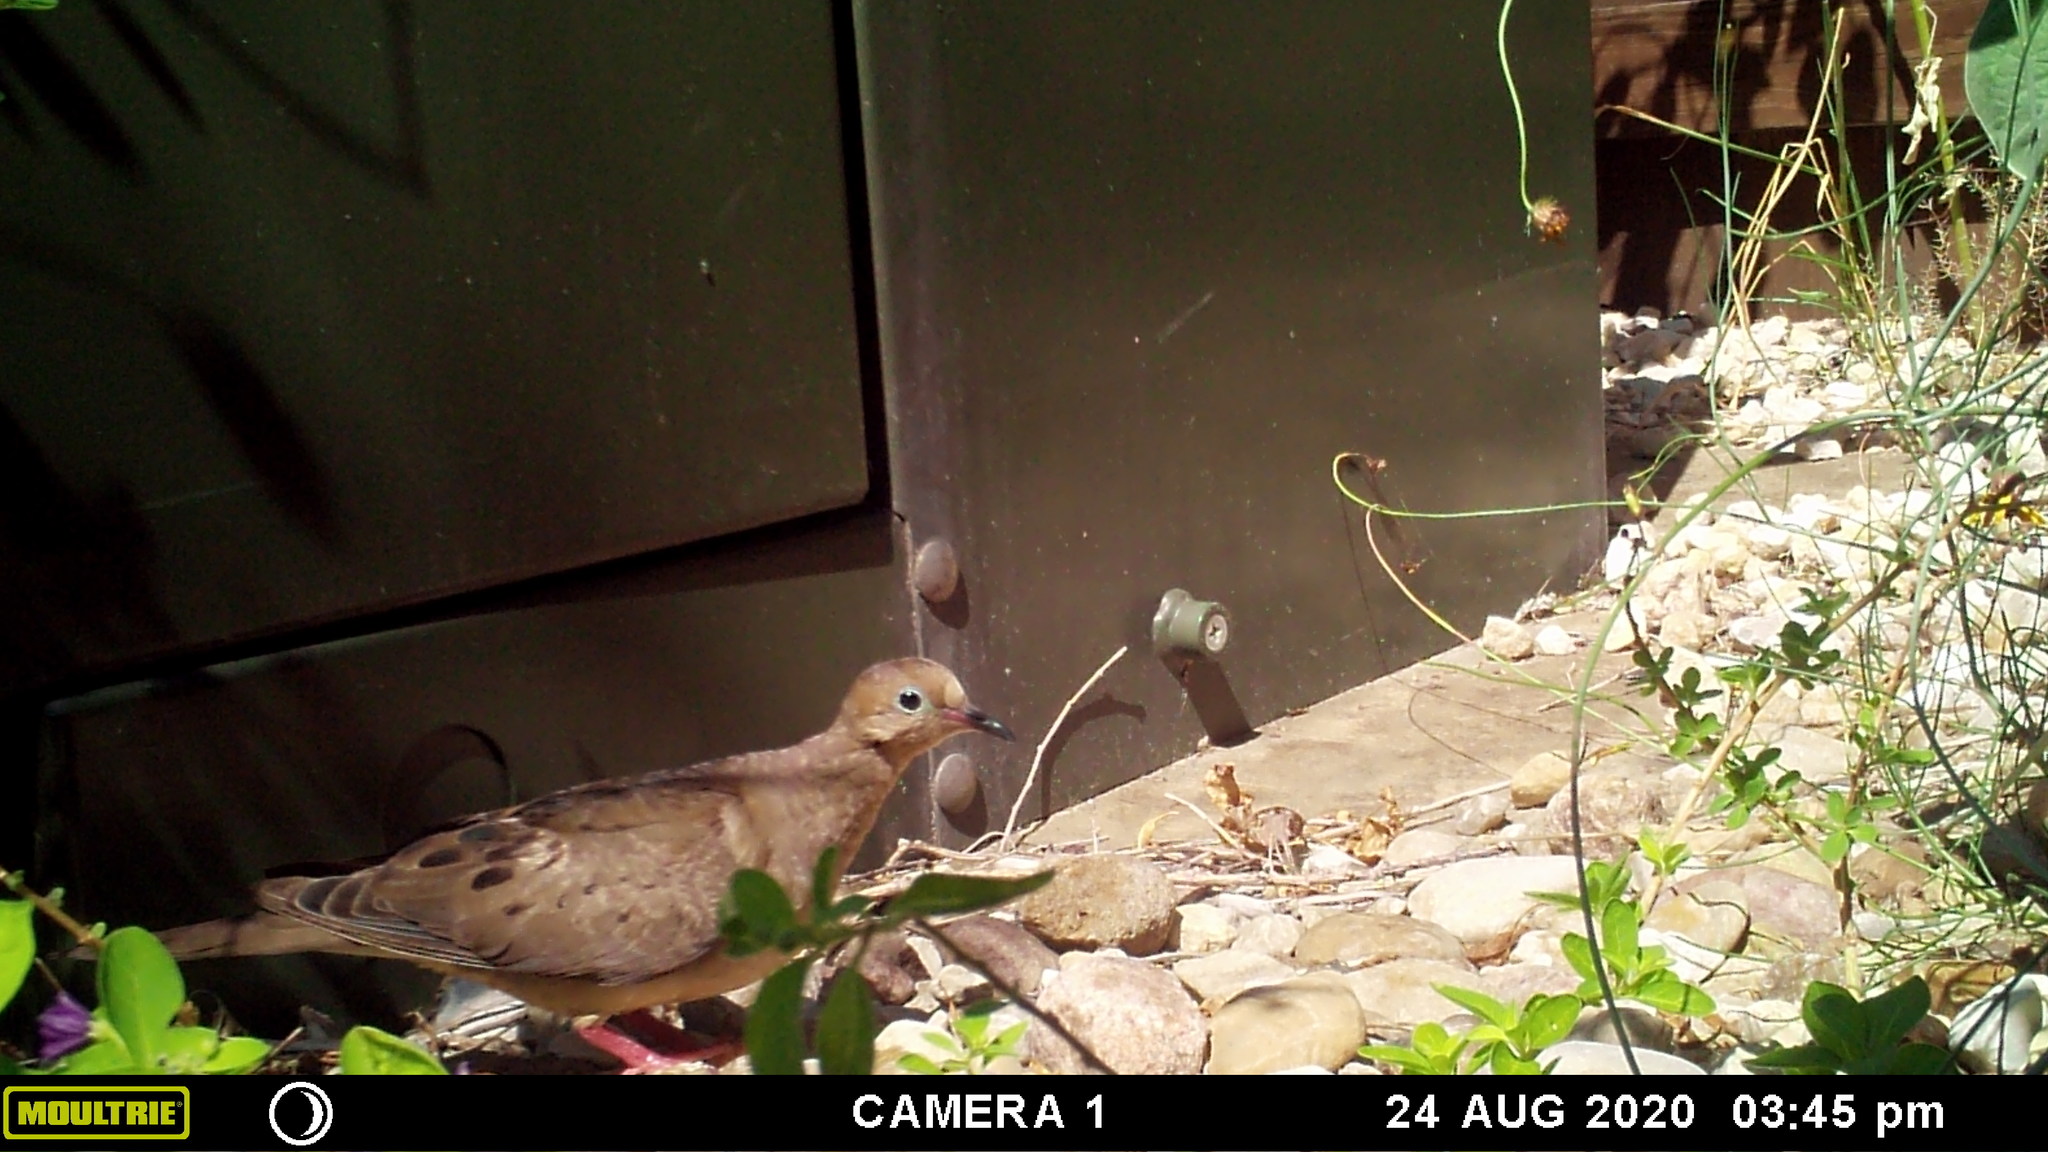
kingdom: Animalia
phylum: Chordata
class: Aves
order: Columbiformes
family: Columbidae
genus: Zenaida
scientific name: Zenaida macroura
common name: Mourning dove
